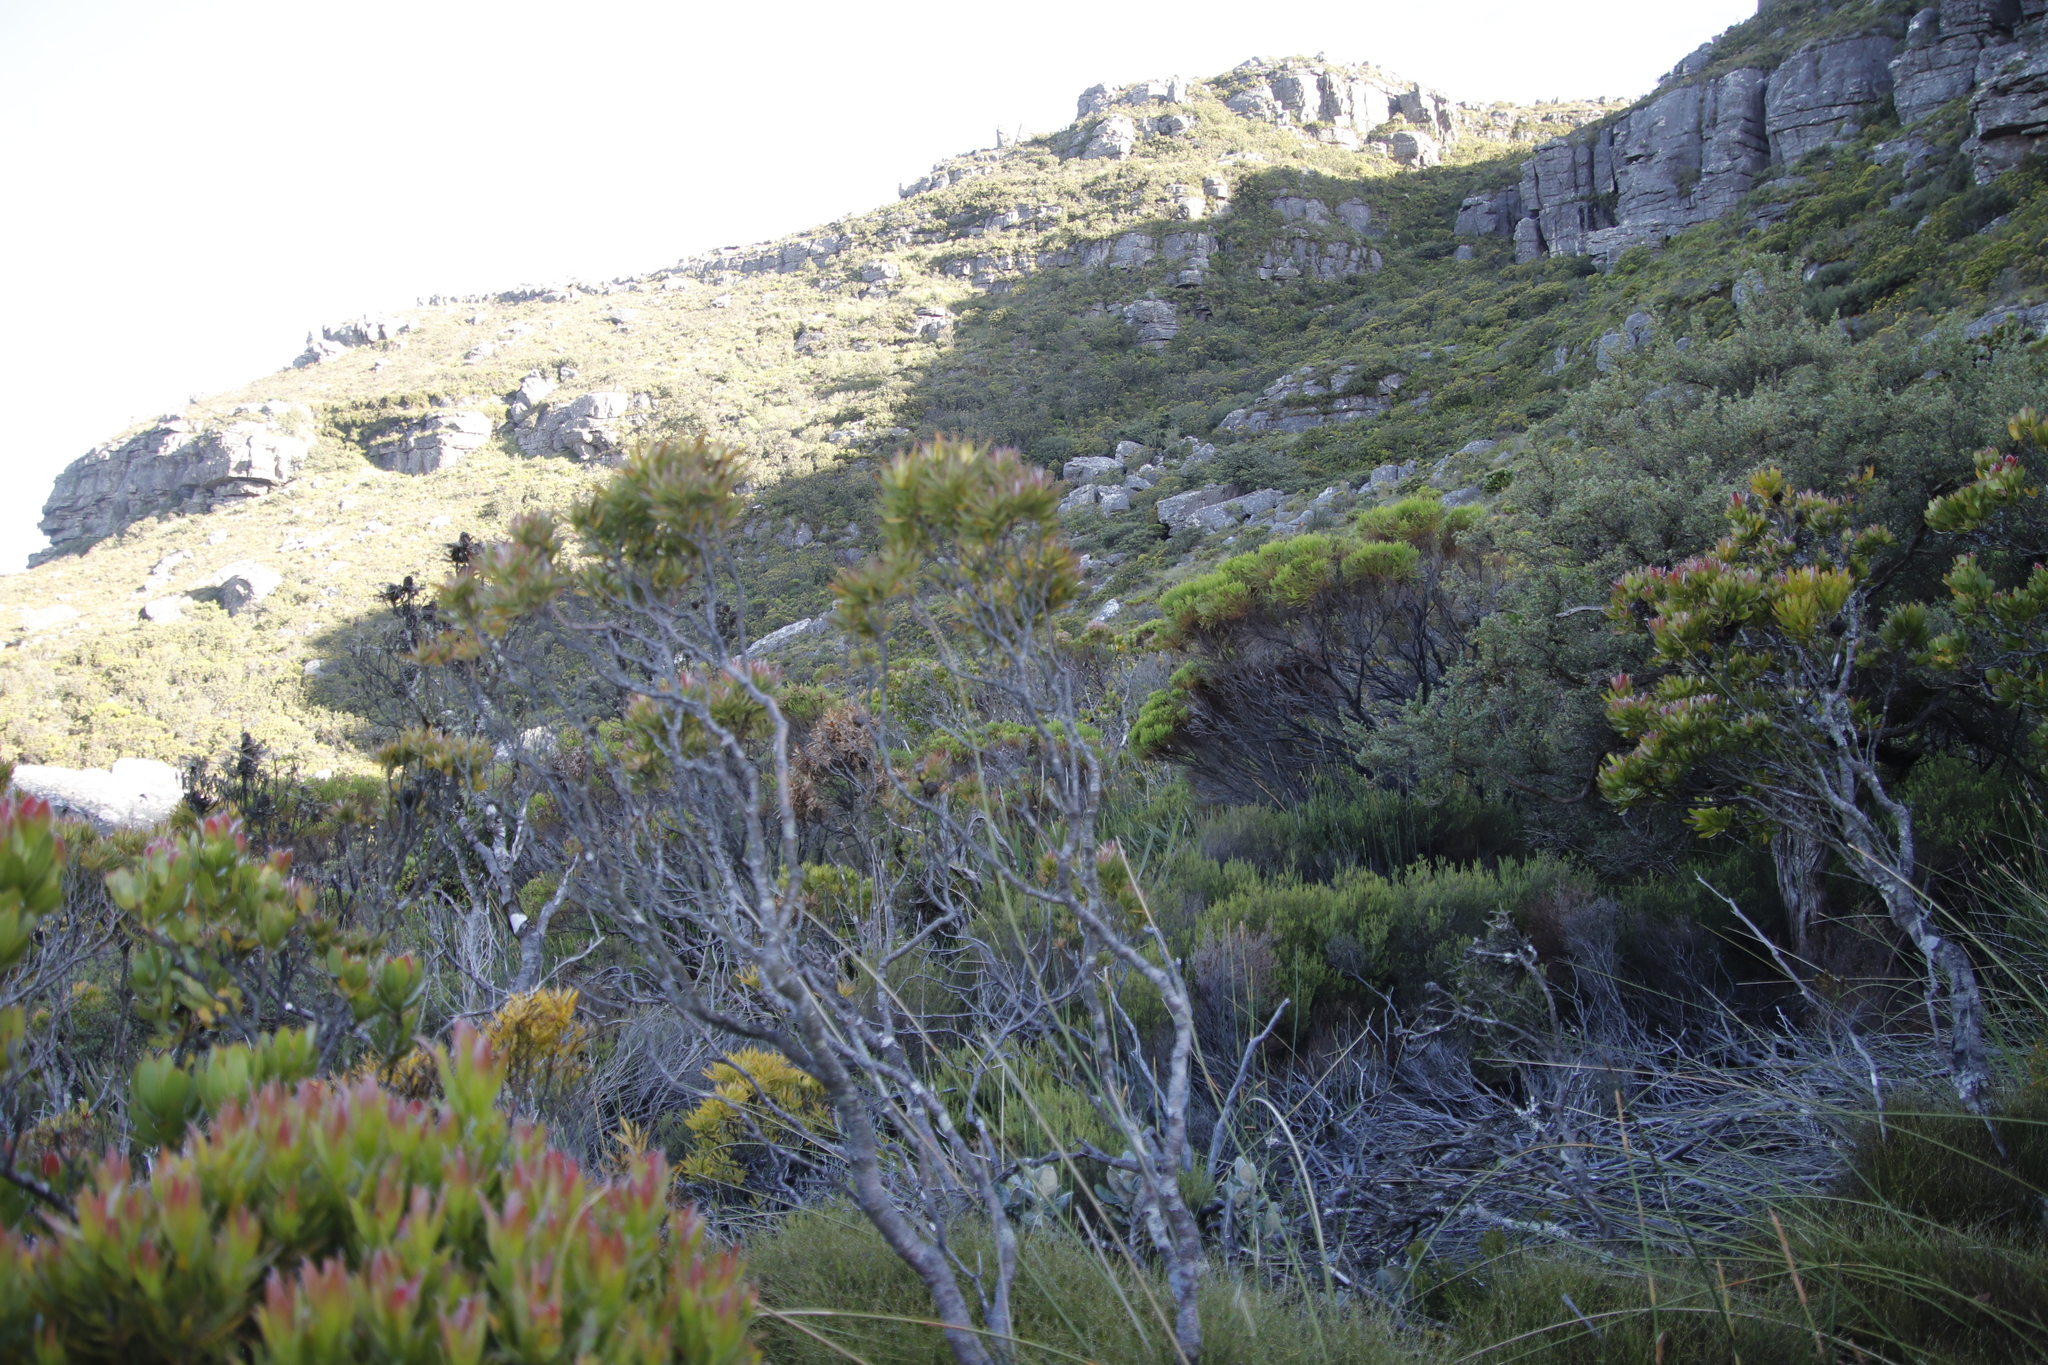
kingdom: Plantae
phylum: Tracheophyta
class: Magnoliopsida
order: Proteales
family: Proteaceae
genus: Leucadendron
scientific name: Leucadendron xanthoconus
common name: Sickle-leaf conebush
